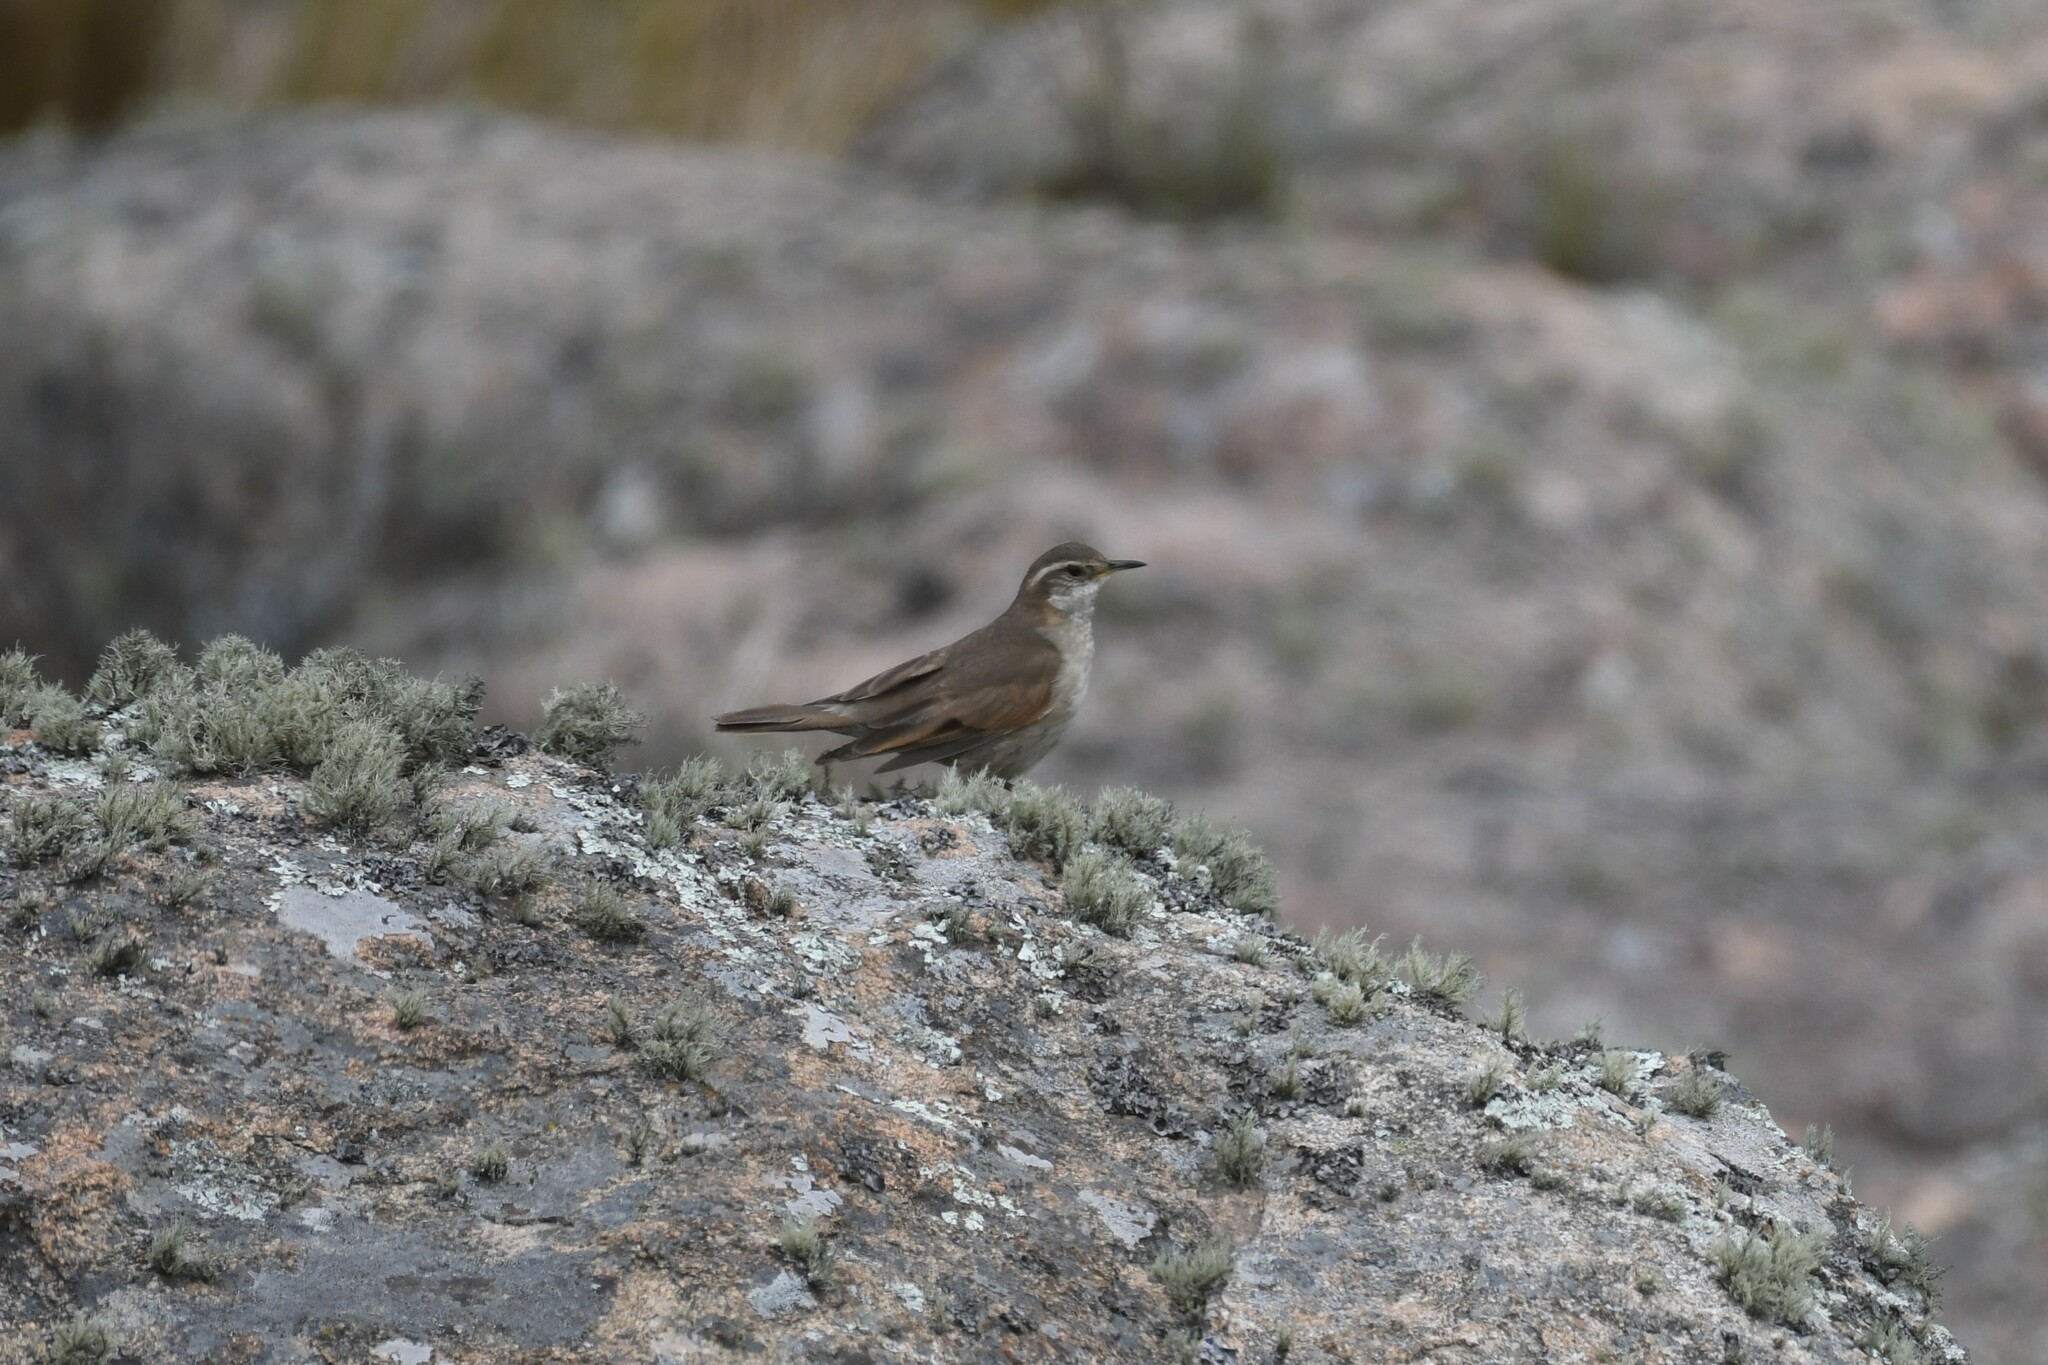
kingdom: Animalia
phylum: Chordata
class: Aves
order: Passeriformes
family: Furnariidae
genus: Cinclodes
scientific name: Cinclodes comechingonus
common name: Cordoba cinclodes
